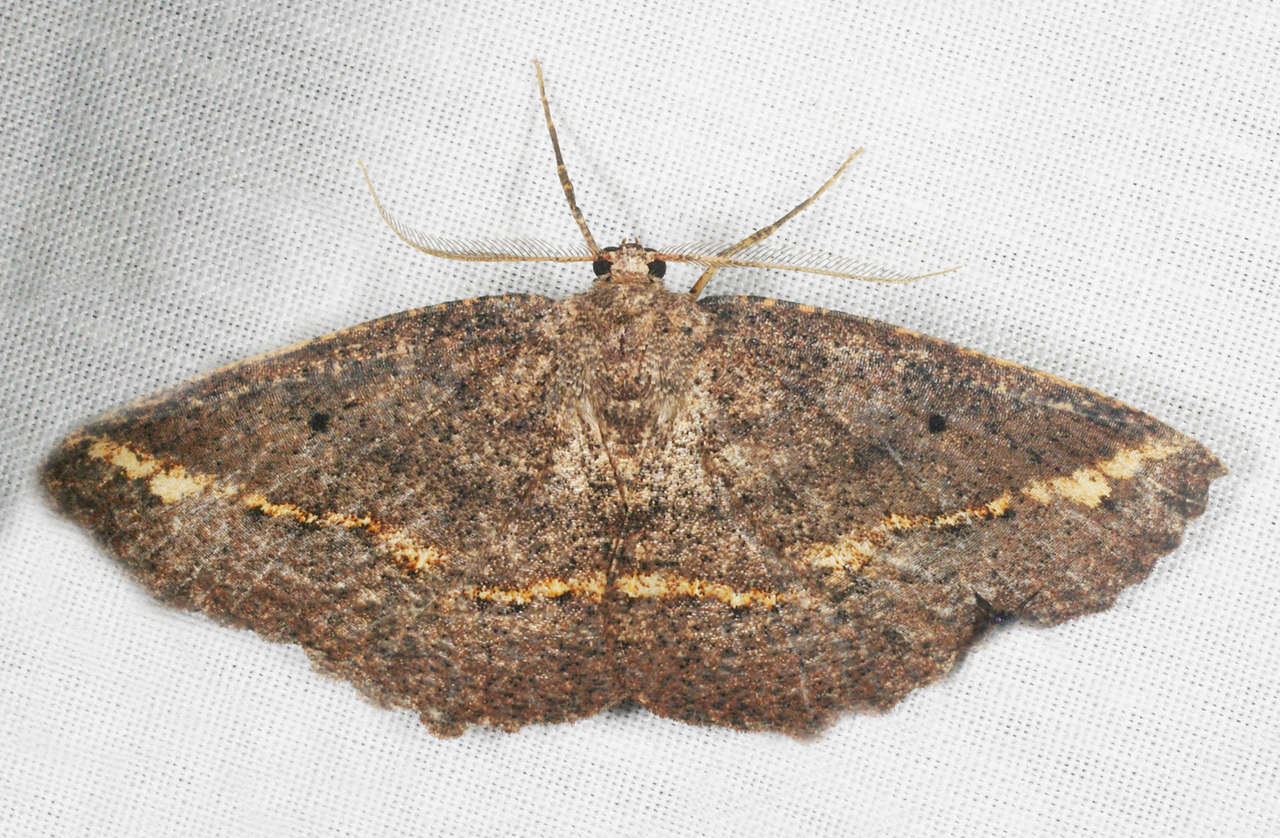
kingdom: Animalia
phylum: Arthropoda
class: Insecta
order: Lepidoptera
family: Geometridae
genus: Xenomusa
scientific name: Xenomusa
